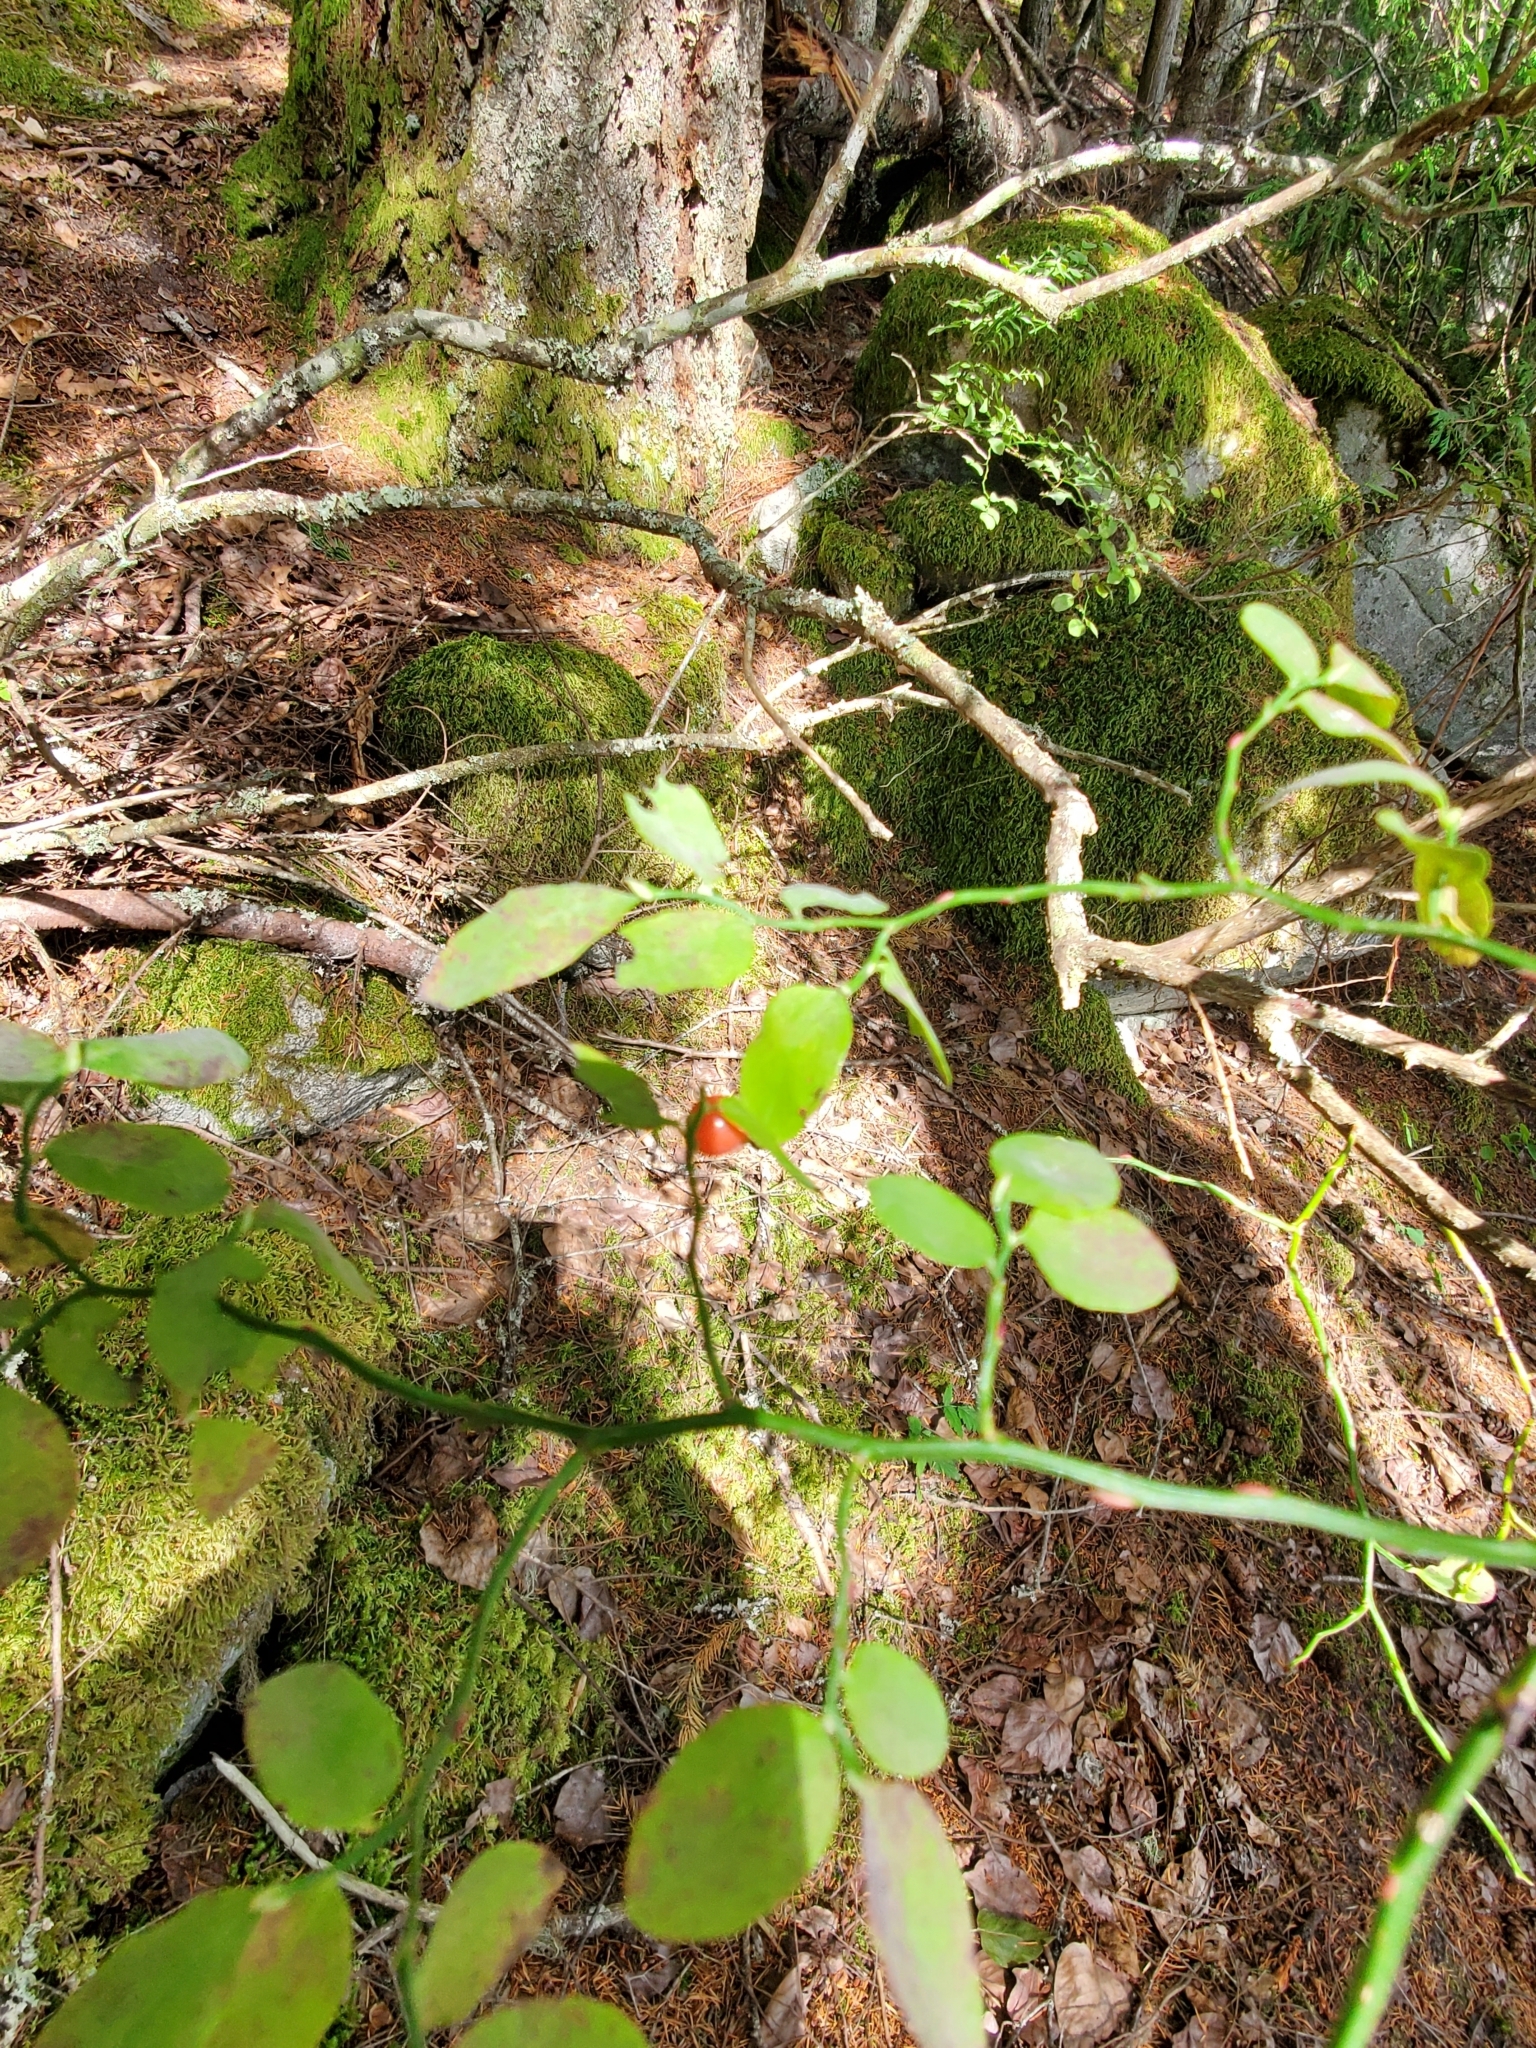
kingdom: Plantae
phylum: Tracheophyta
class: Magnoliopsida
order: Ericales
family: Ericaceae
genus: Vaccinium
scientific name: Vaccinium parvifolium
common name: Red-huckleberry
